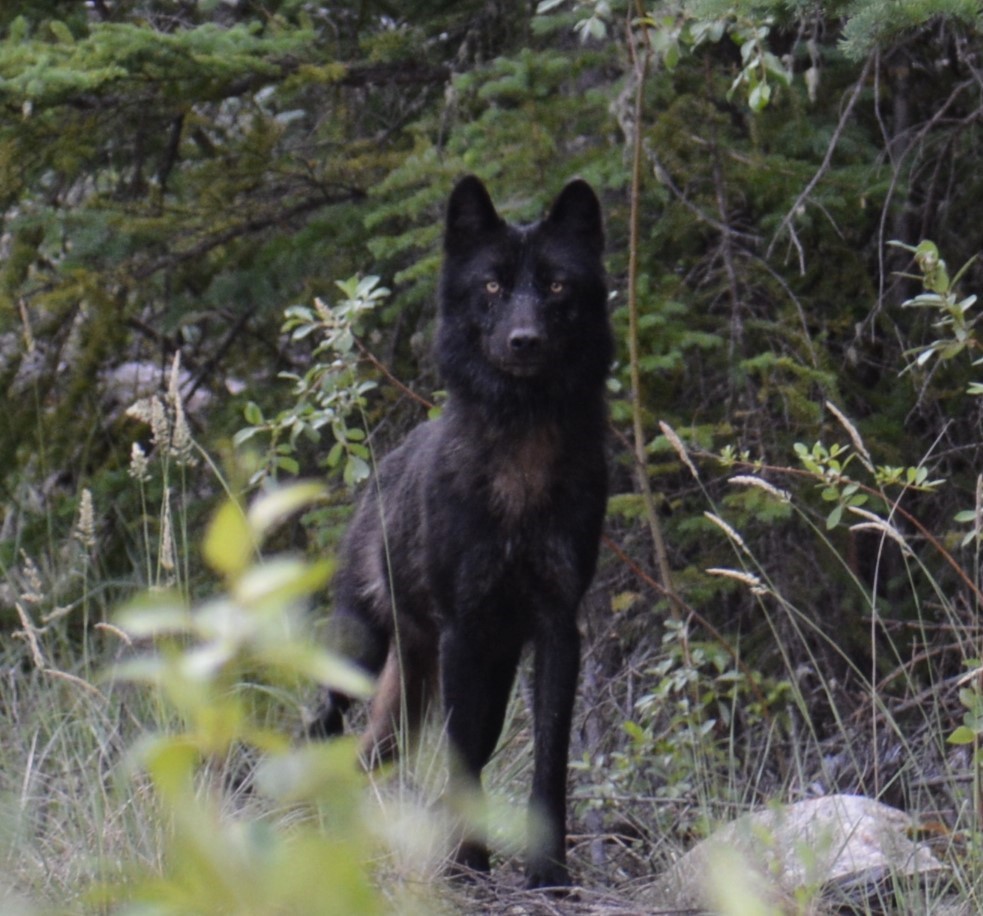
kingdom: Animalia
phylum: Chordata
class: Mammalia
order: Carnivora
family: Canidae
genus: Canis
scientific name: Canis lupus
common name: Gray wolf
